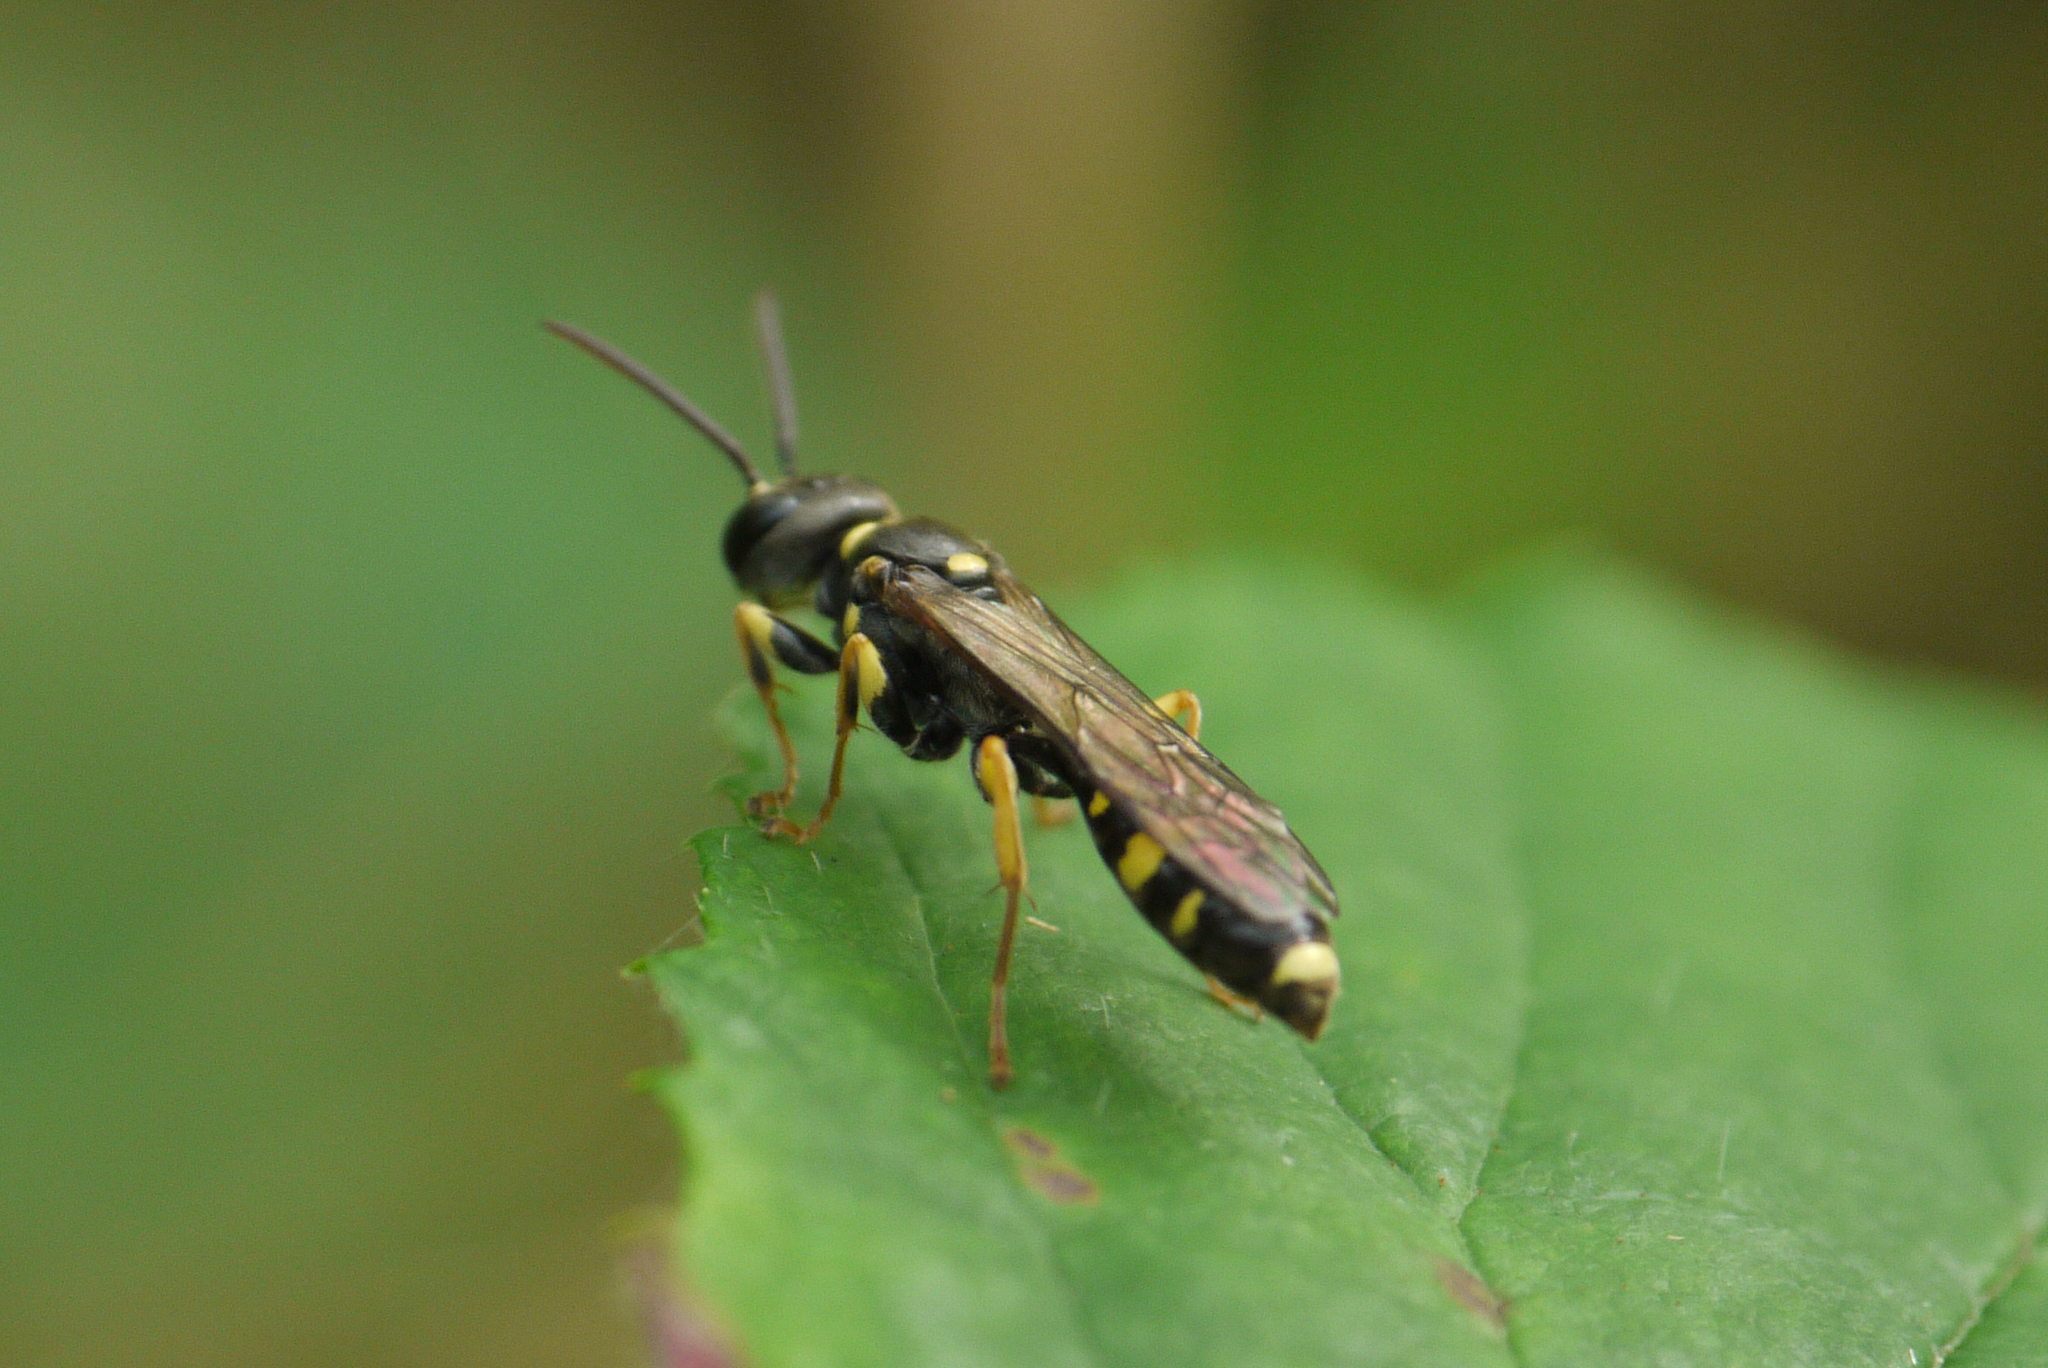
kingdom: Animalia
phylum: Arthropoda
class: Insecta
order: Hymenoptera
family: Crabronidae
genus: Mellinus
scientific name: Mellinus arvensis
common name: Field digger wasp
